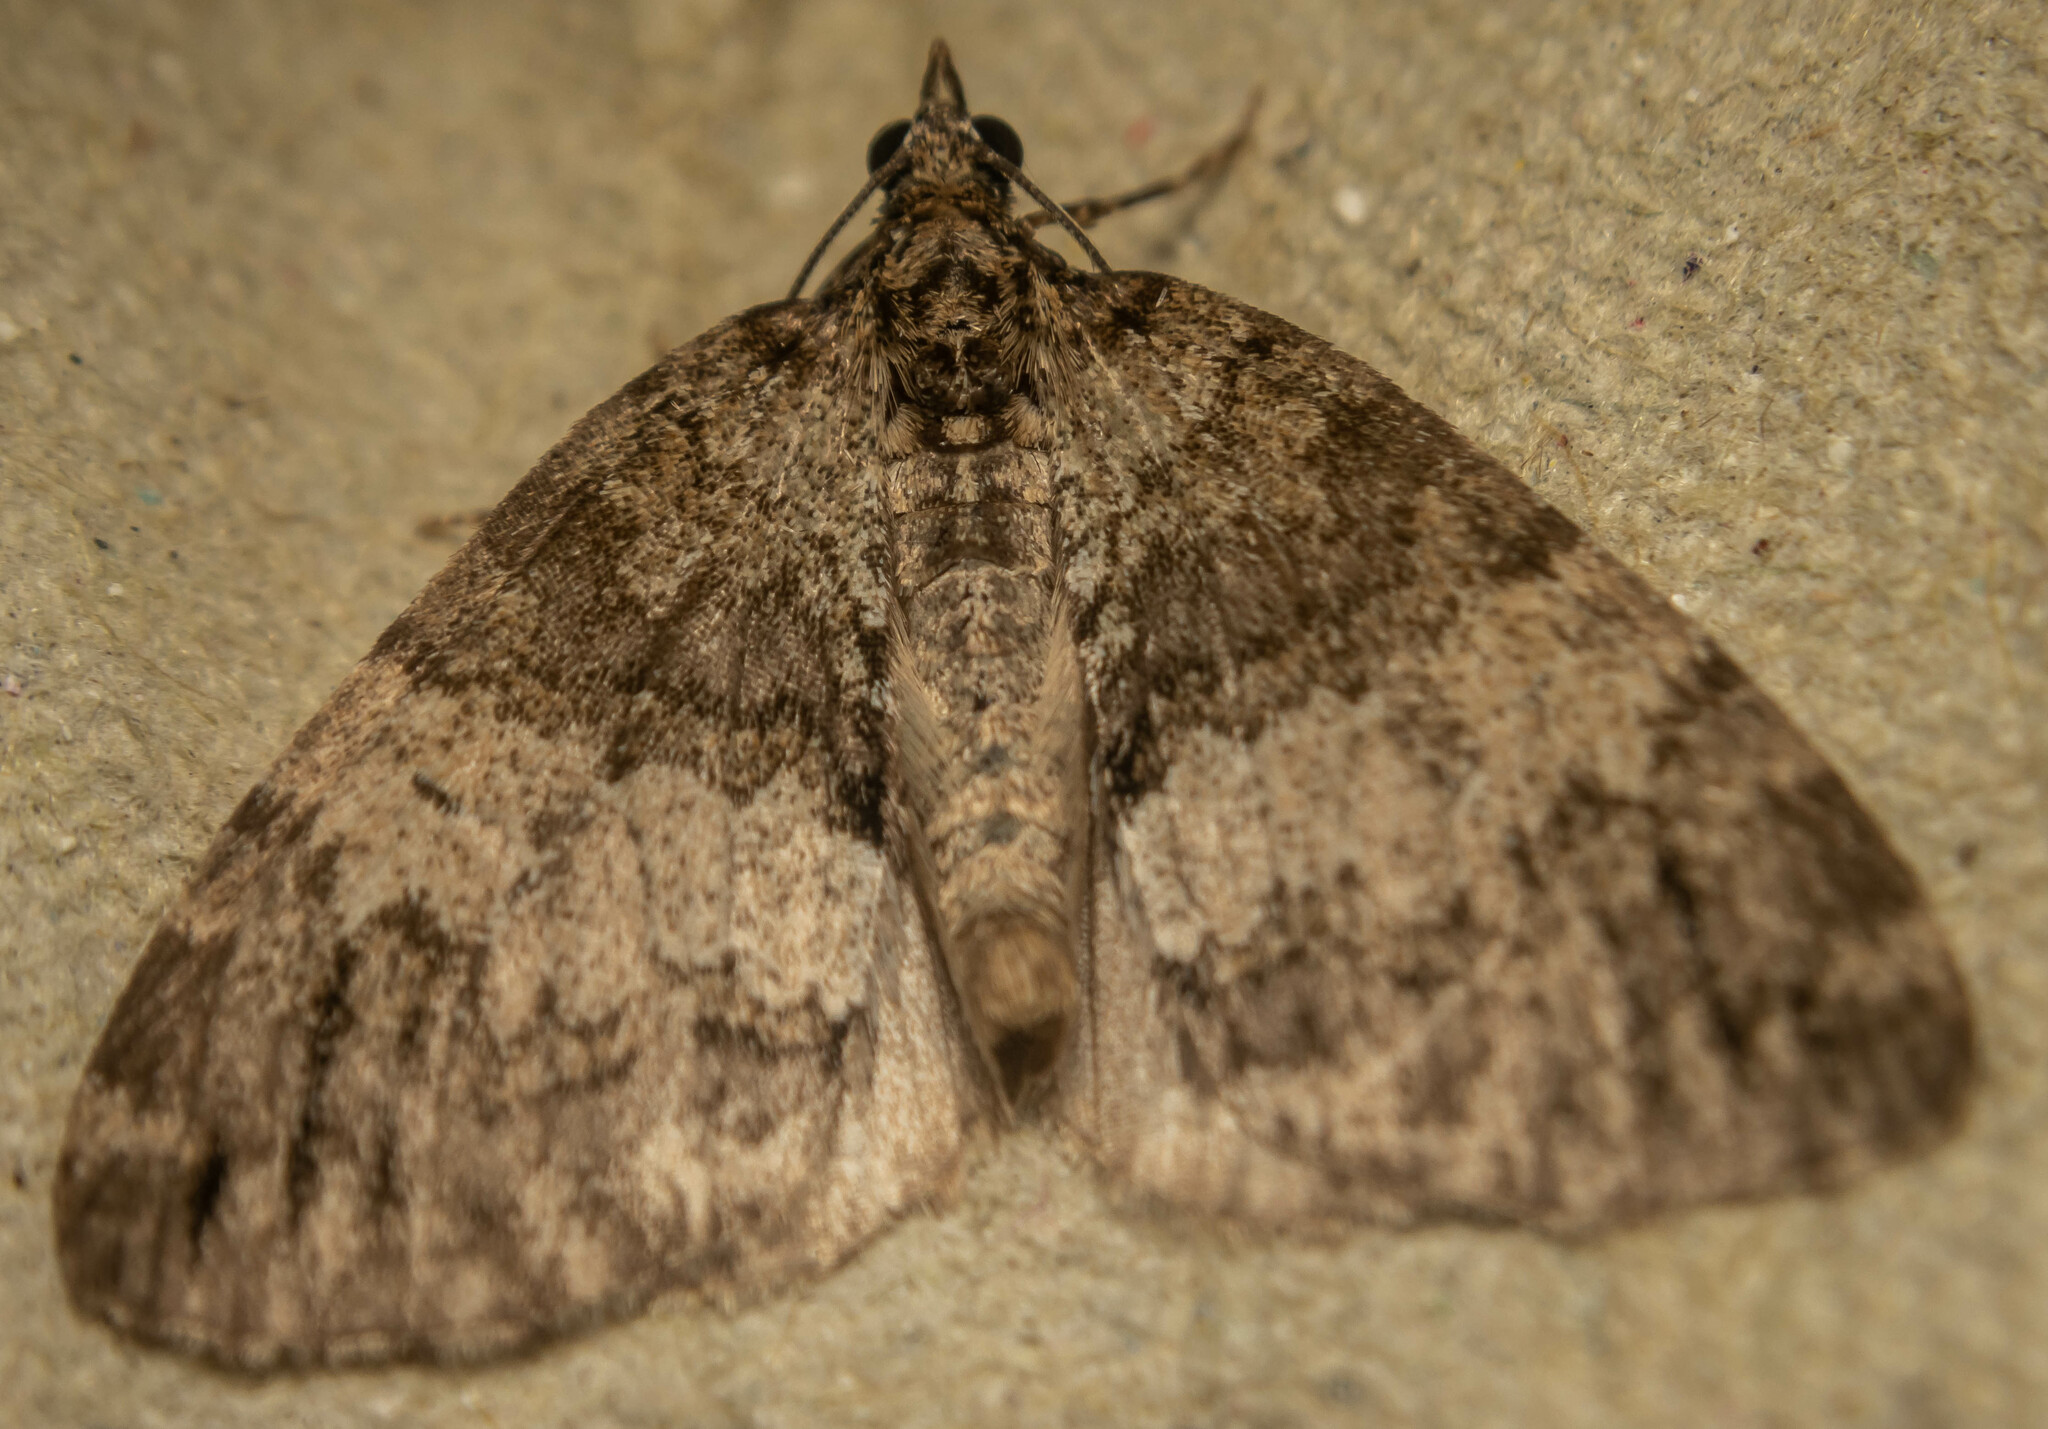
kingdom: Animalia
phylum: Arthropoda
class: Insecta
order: Lepidoptera
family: Geometridae
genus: Hydriomena
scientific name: Hydriomena impluviata
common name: May highflyer
